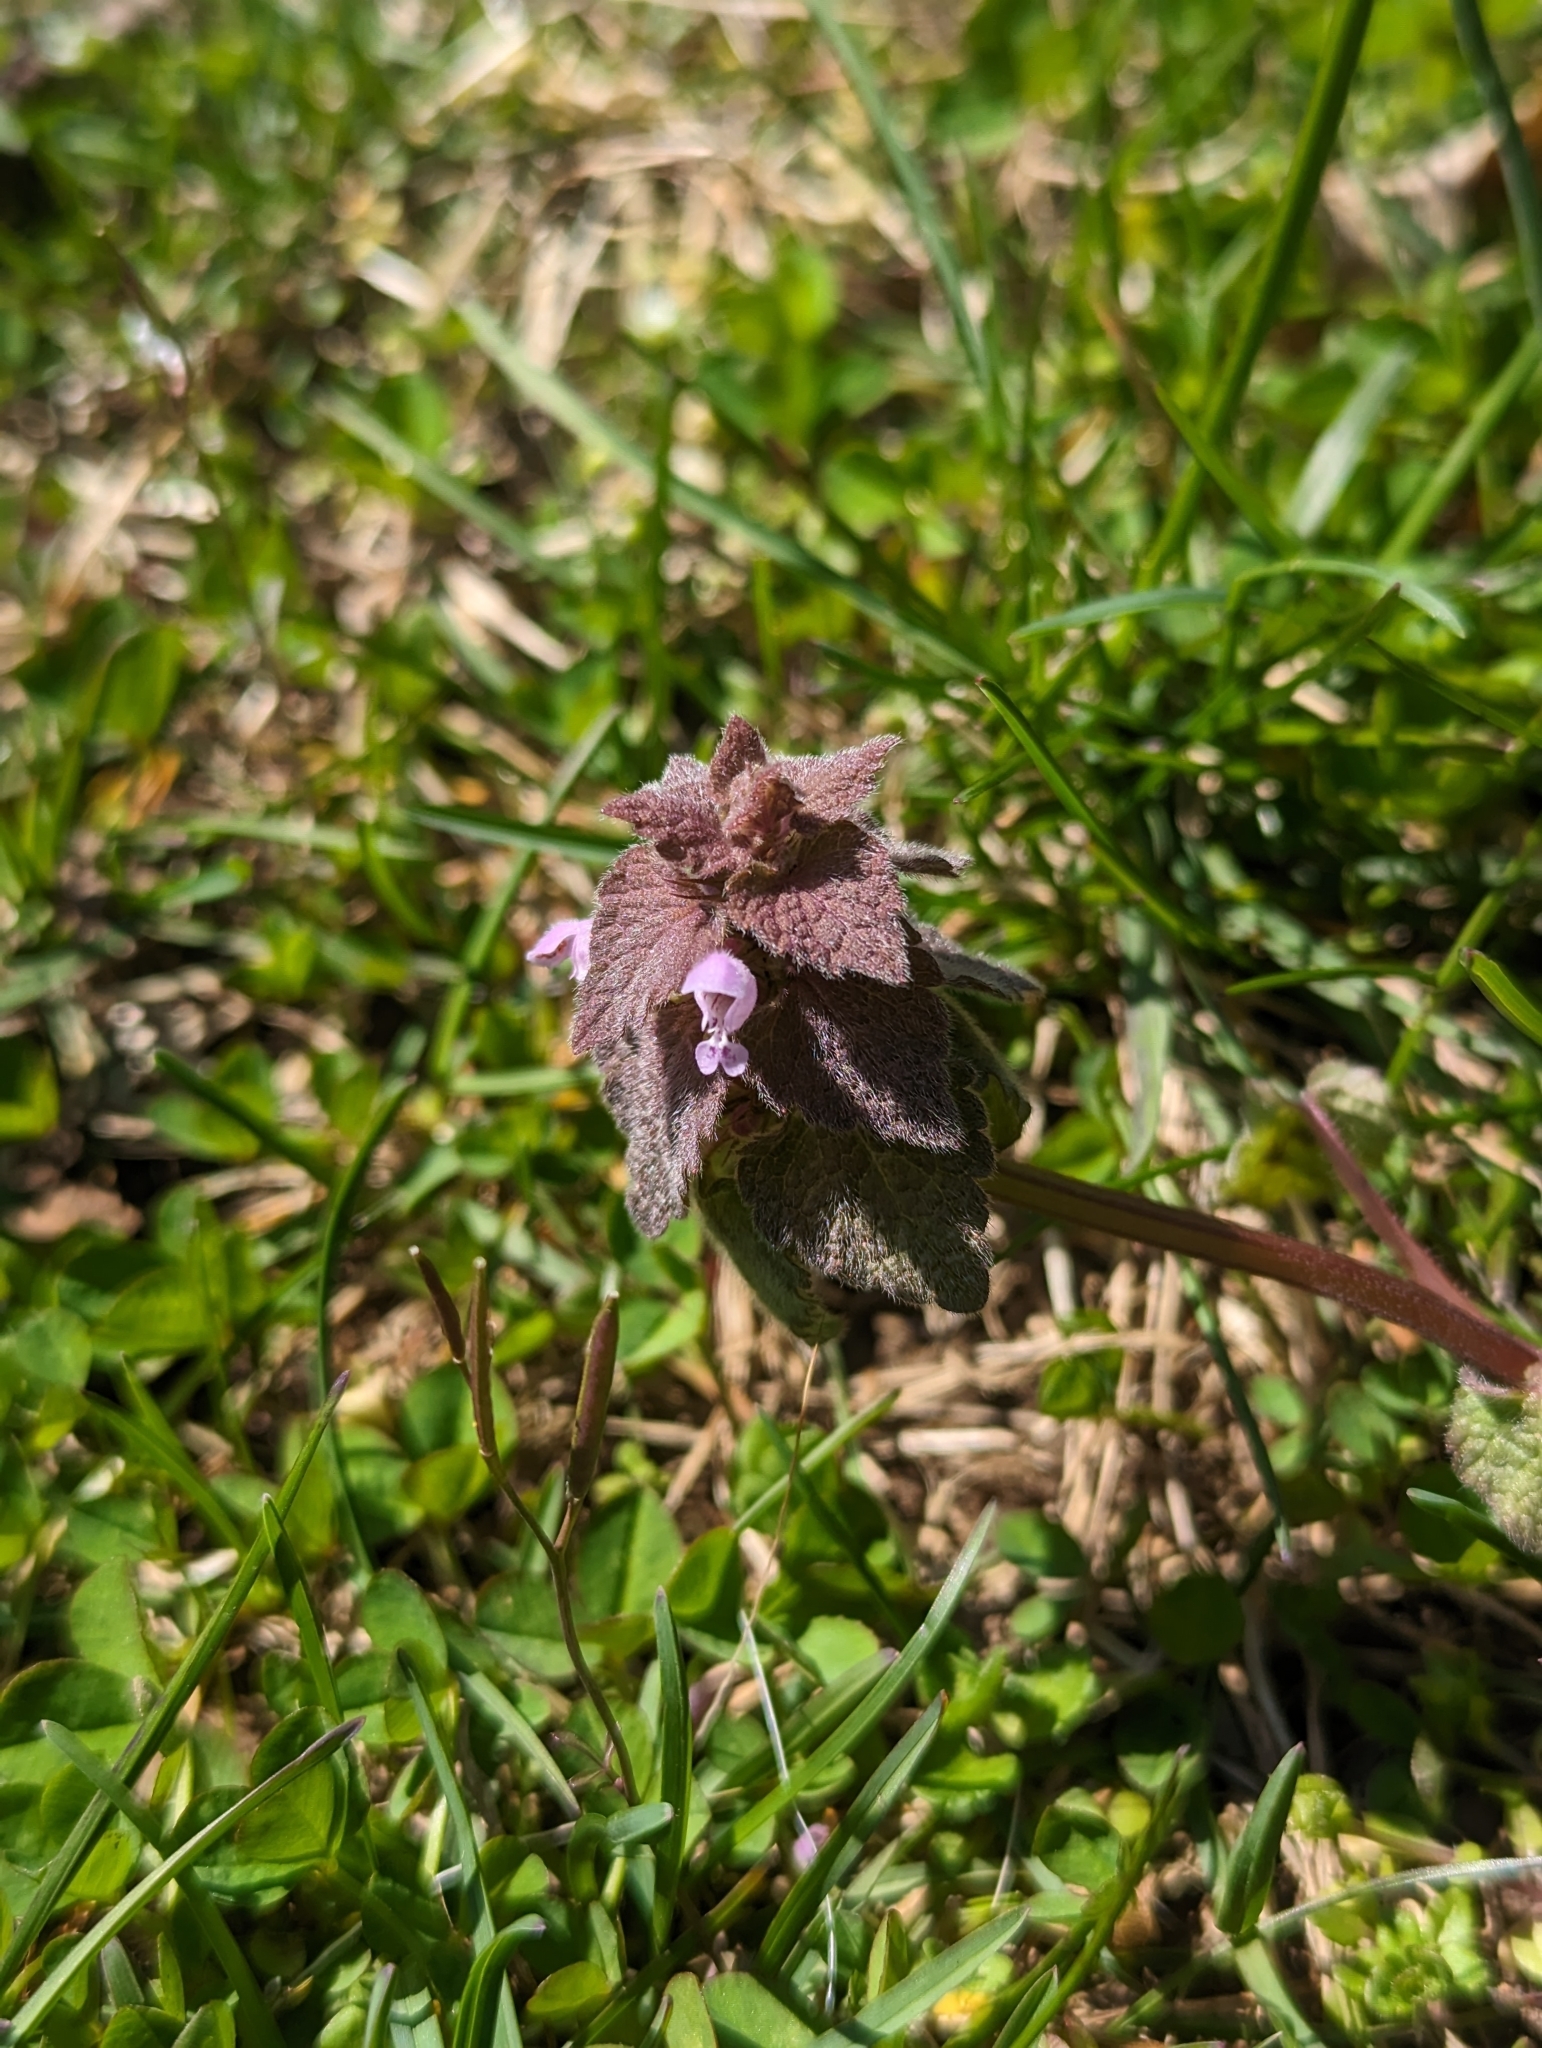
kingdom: Plantae
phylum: Tracheophyta
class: Magnoliopsida
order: Lamiales
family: Lamiaceae
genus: Lamium
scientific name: Lamium purpureum
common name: Red dead-nettle
